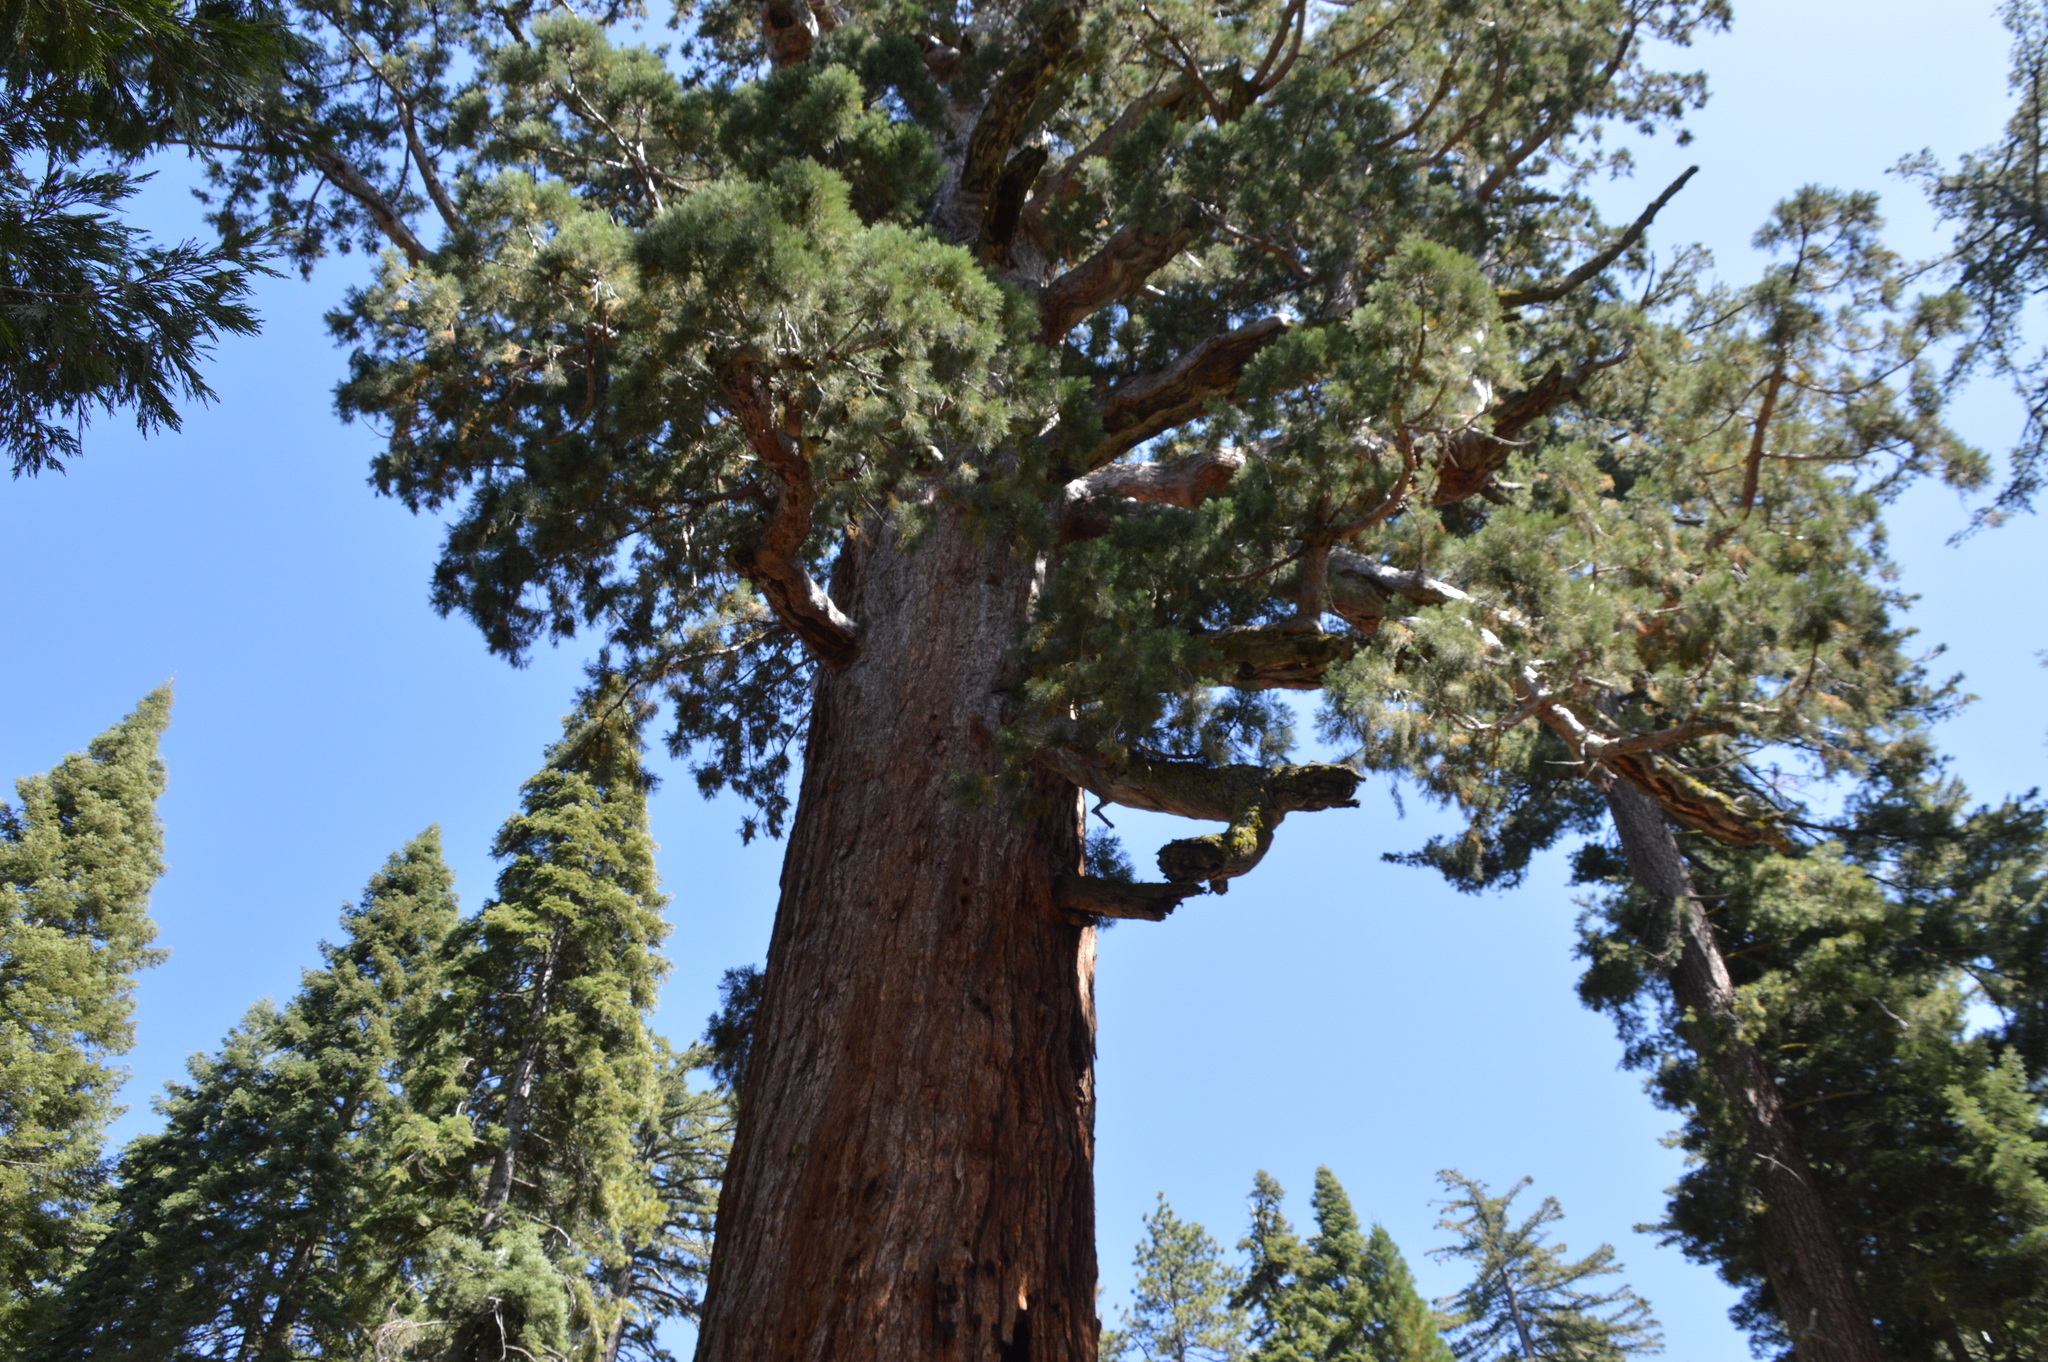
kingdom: Plantae
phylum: Tracheophyta
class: Pinopsida
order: Pinales
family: Cupressaceae
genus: Sequoiadendron
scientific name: Sequoiadendron giganteum
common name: Wellingtonia
